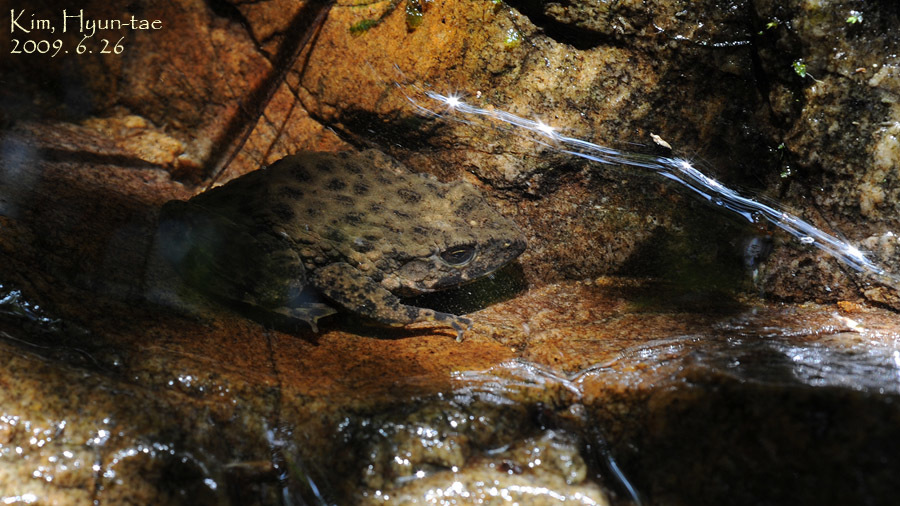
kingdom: Animalia
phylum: Chordata
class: Amphibia
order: Anura
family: Ranidae
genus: Glandirana
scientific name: Glandirana emeljanovi
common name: Northeast china rough-skinned frog
